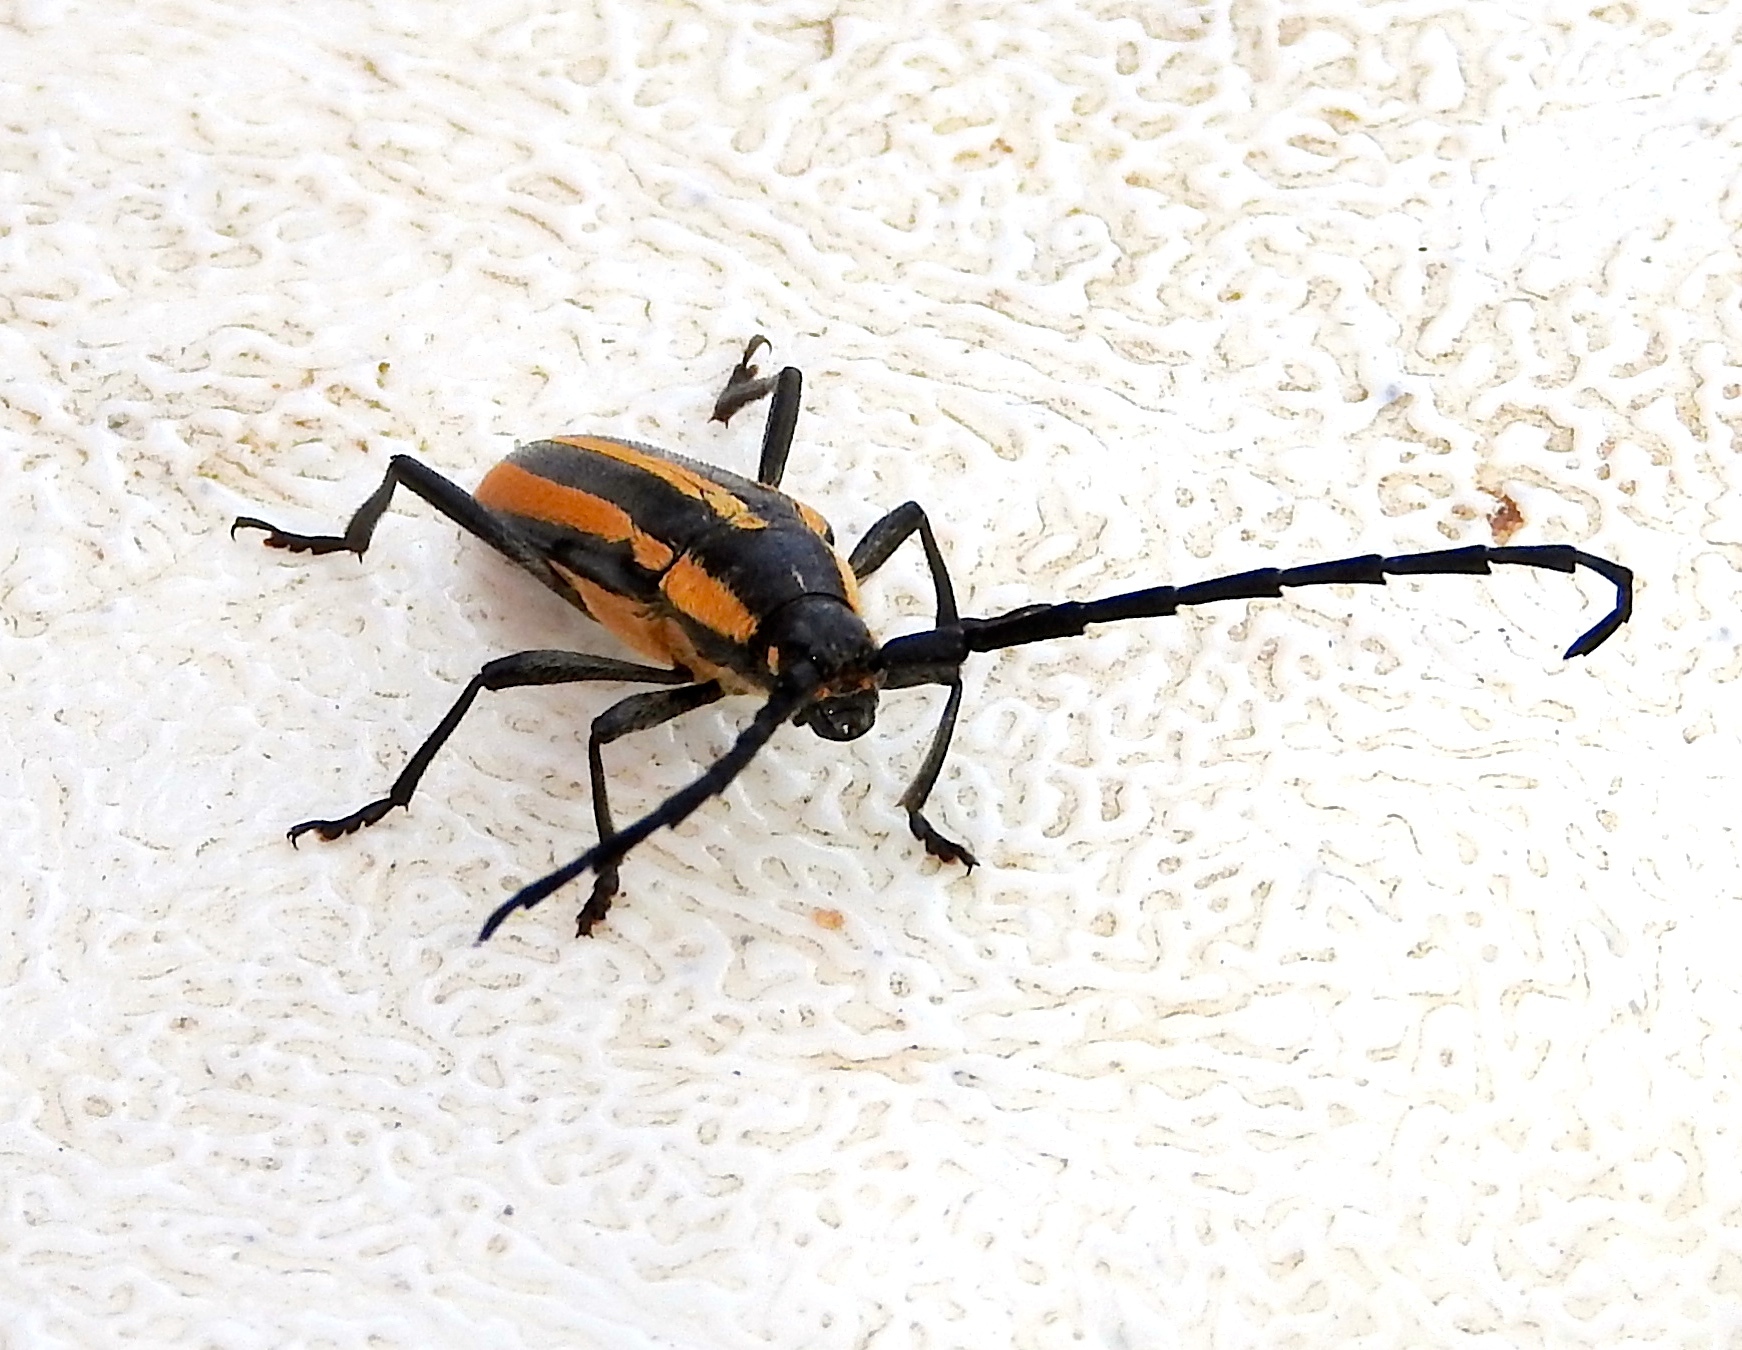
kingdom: Animalia
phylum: Arthropoda
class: Insecta
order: Coleoptera
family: Cerambycidae
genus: Sphaenothecus
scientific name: Sphaenothecus trilineatus
